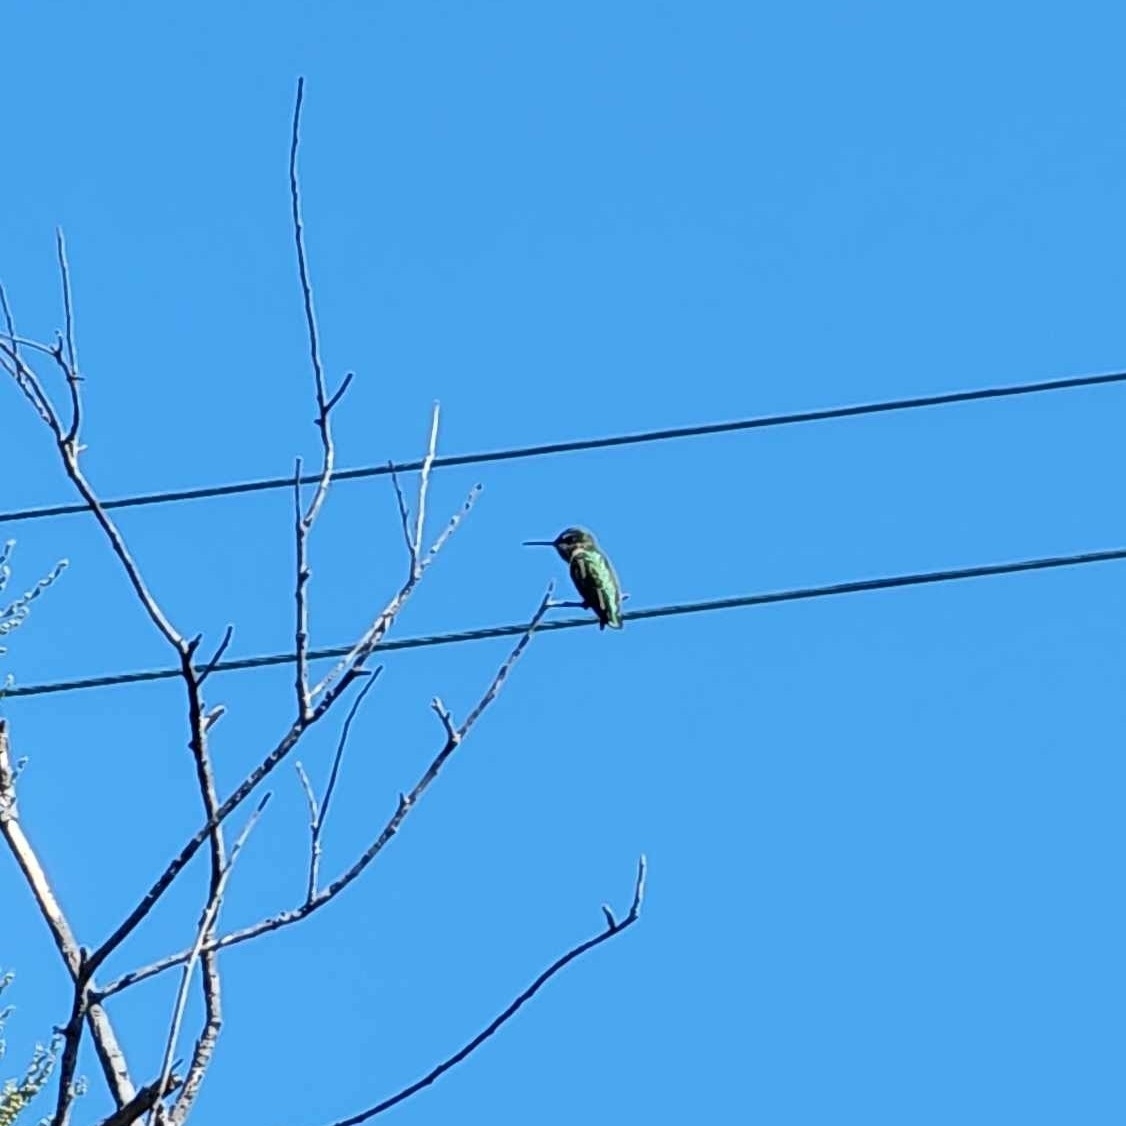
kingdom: Animalia
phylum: Chordata
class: Aves
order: Apodiformes
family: Trochilidae
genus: Calypte
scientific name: Calypte anna
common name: Anna's hummingbird
